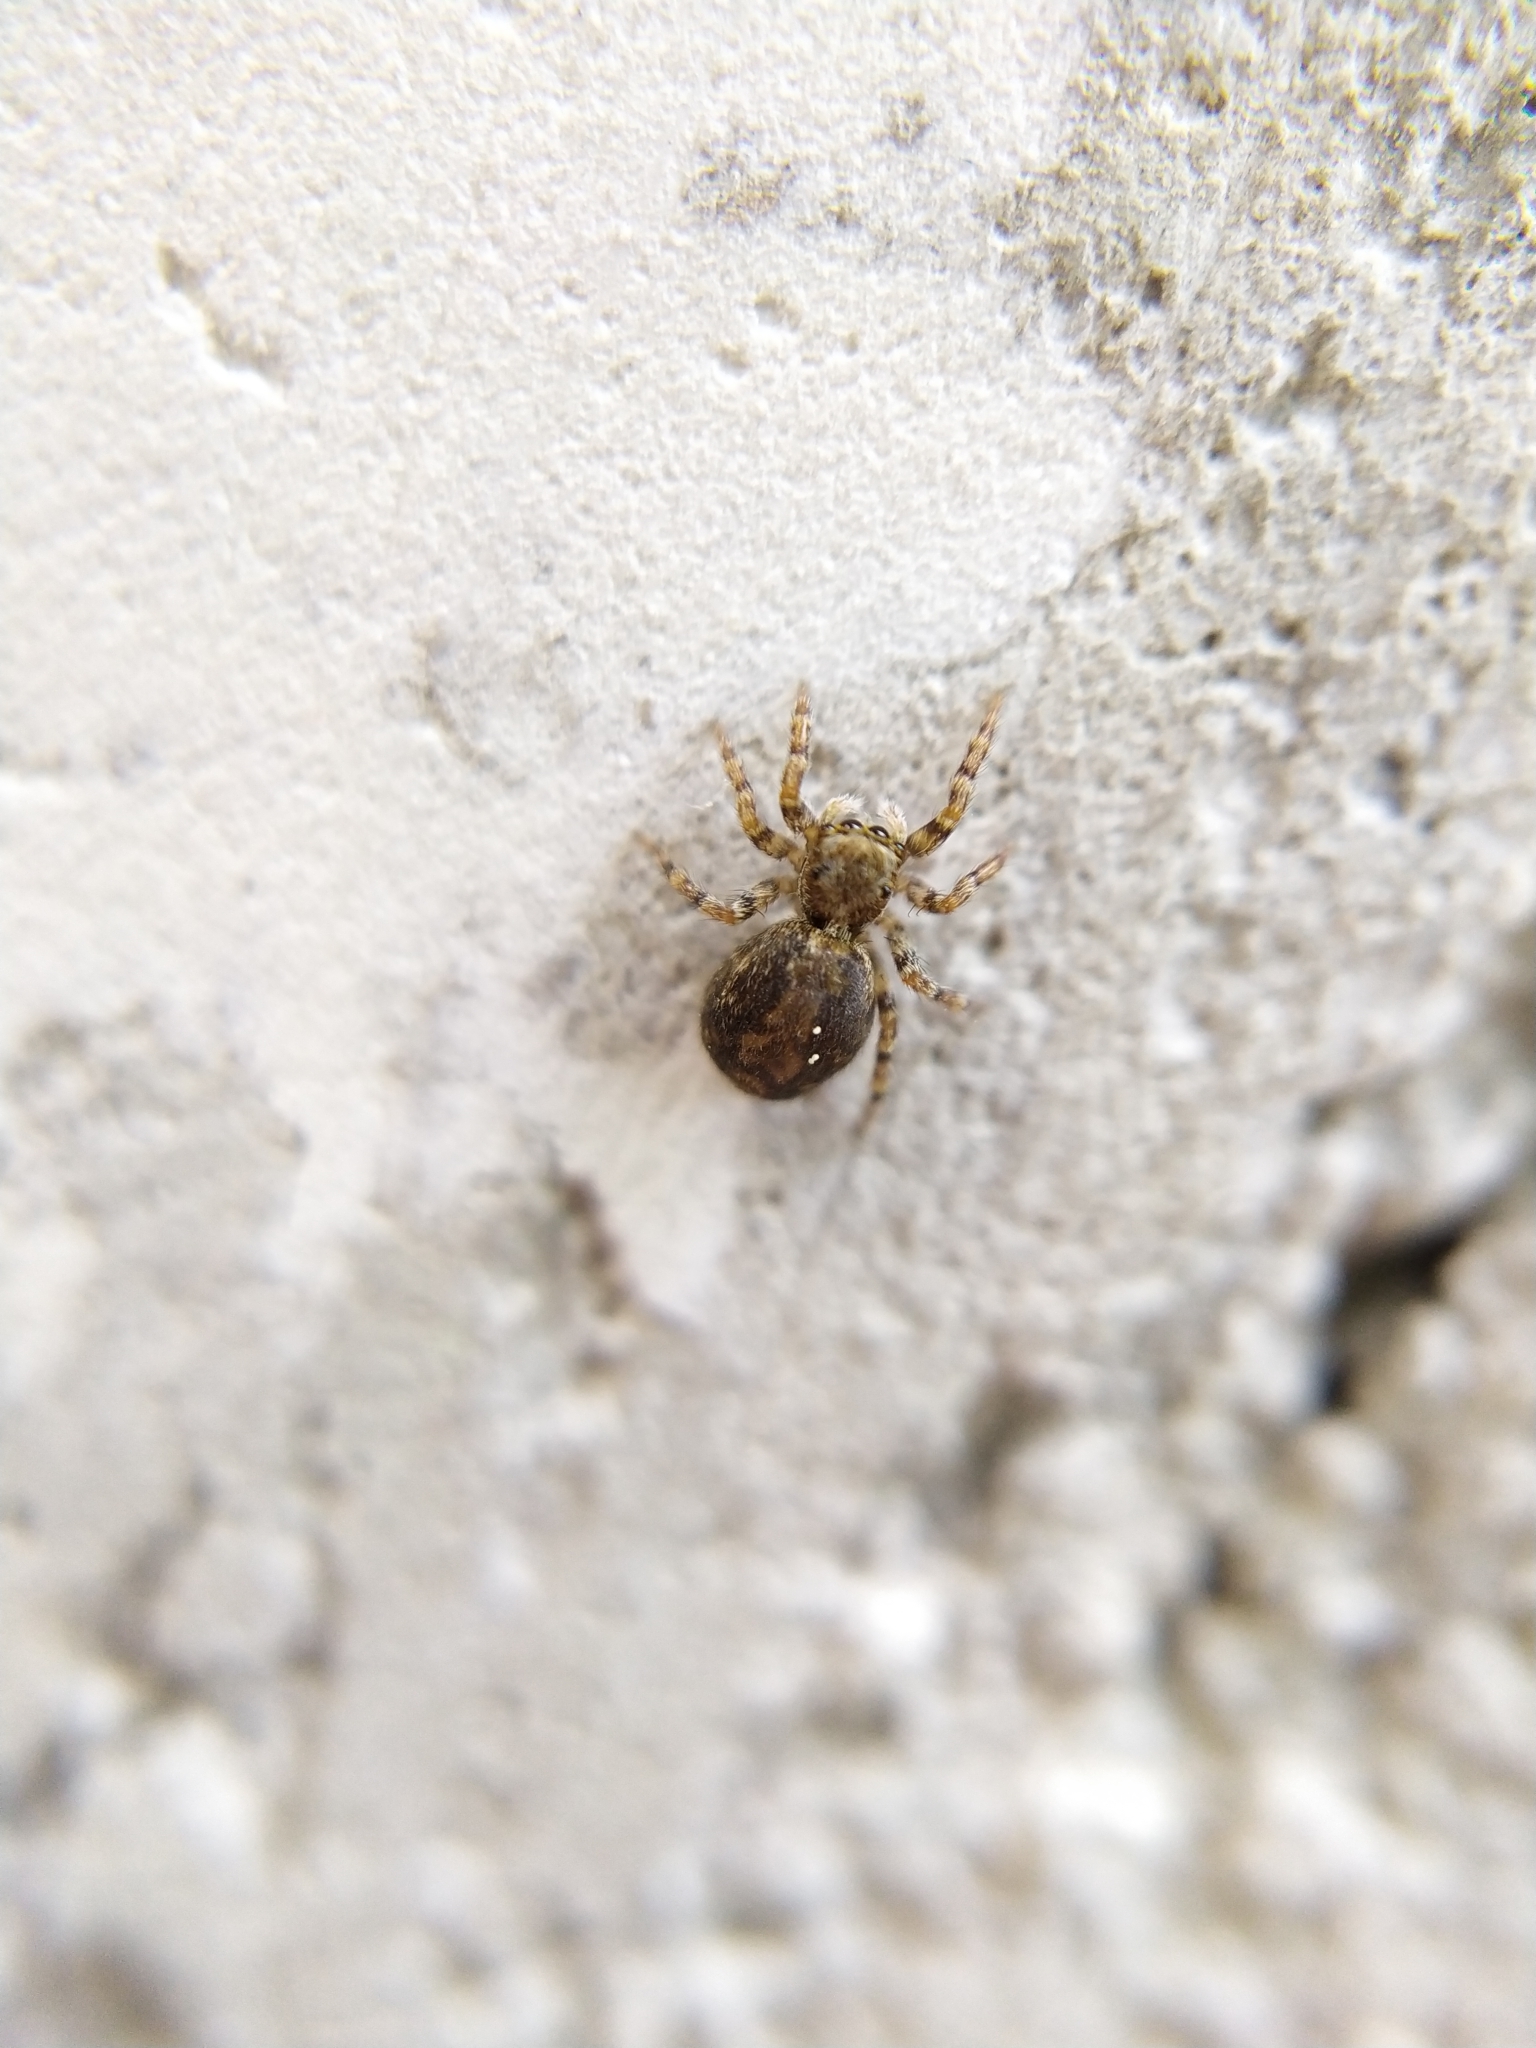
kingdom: Animalia
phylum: Arthropoda
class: Arachnida
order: Araneae
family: Salticidae
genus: Pseudeuophrys
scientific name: Pseudeuophrys lanigera
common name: Jumping spider
